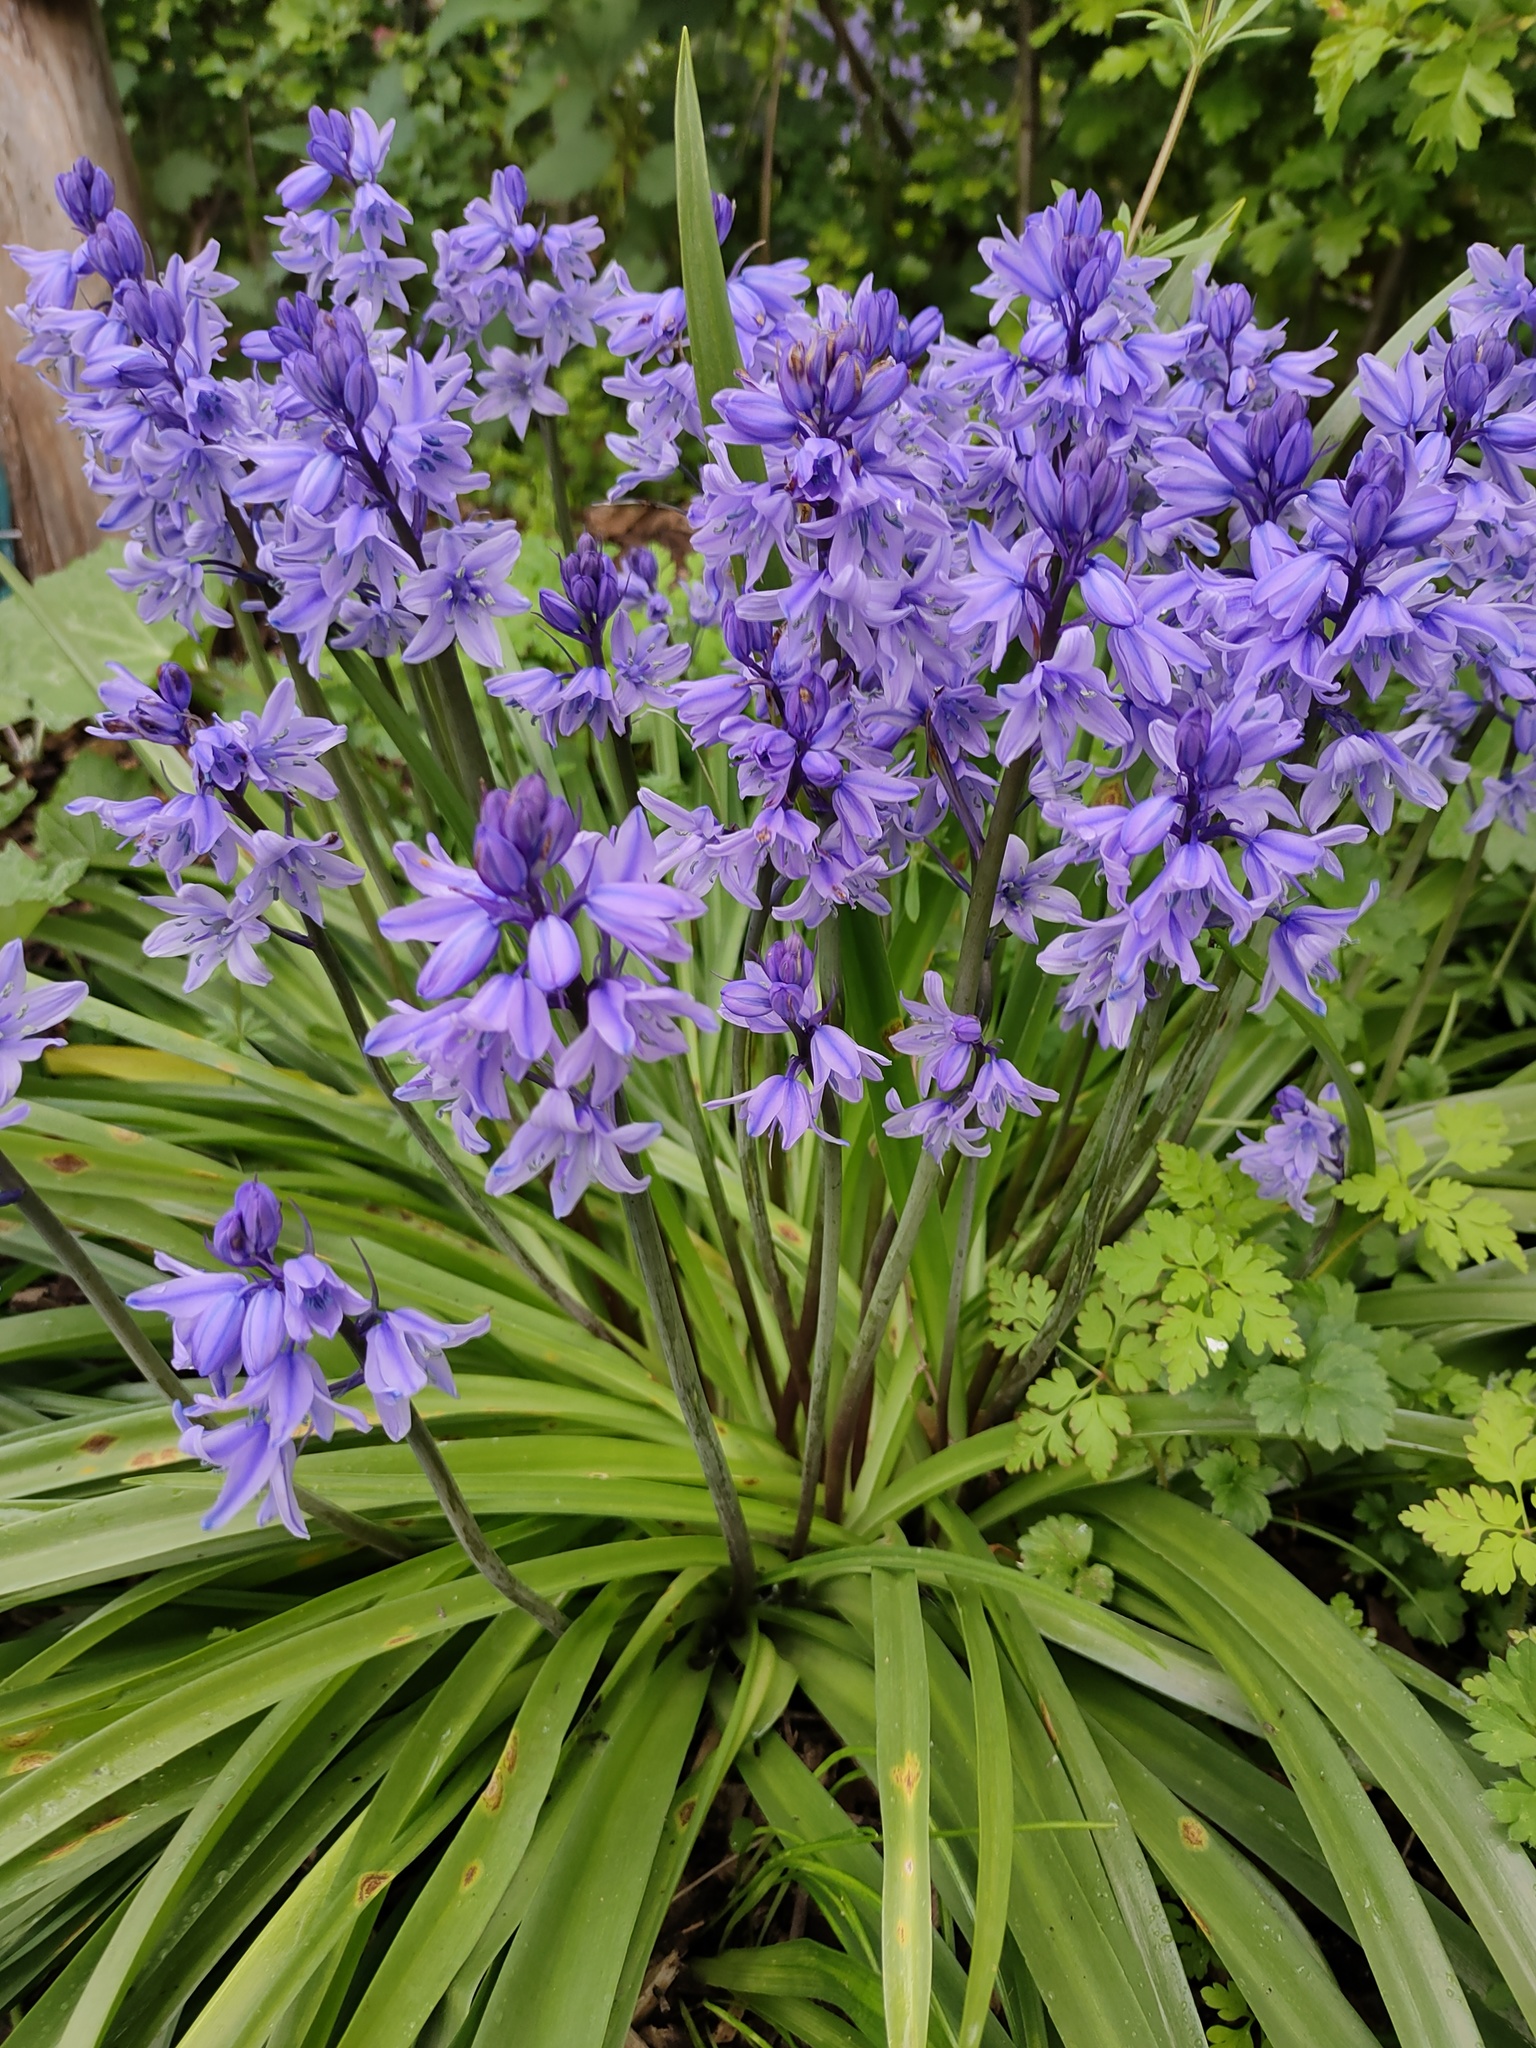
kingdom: Plantae
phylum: Tracheophyta
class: Liliopsida
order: Asparagales
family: Asparagaceae
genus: Hyacinthoides
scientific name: Hyacinthoides hispanica
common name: Spanish bluebell
